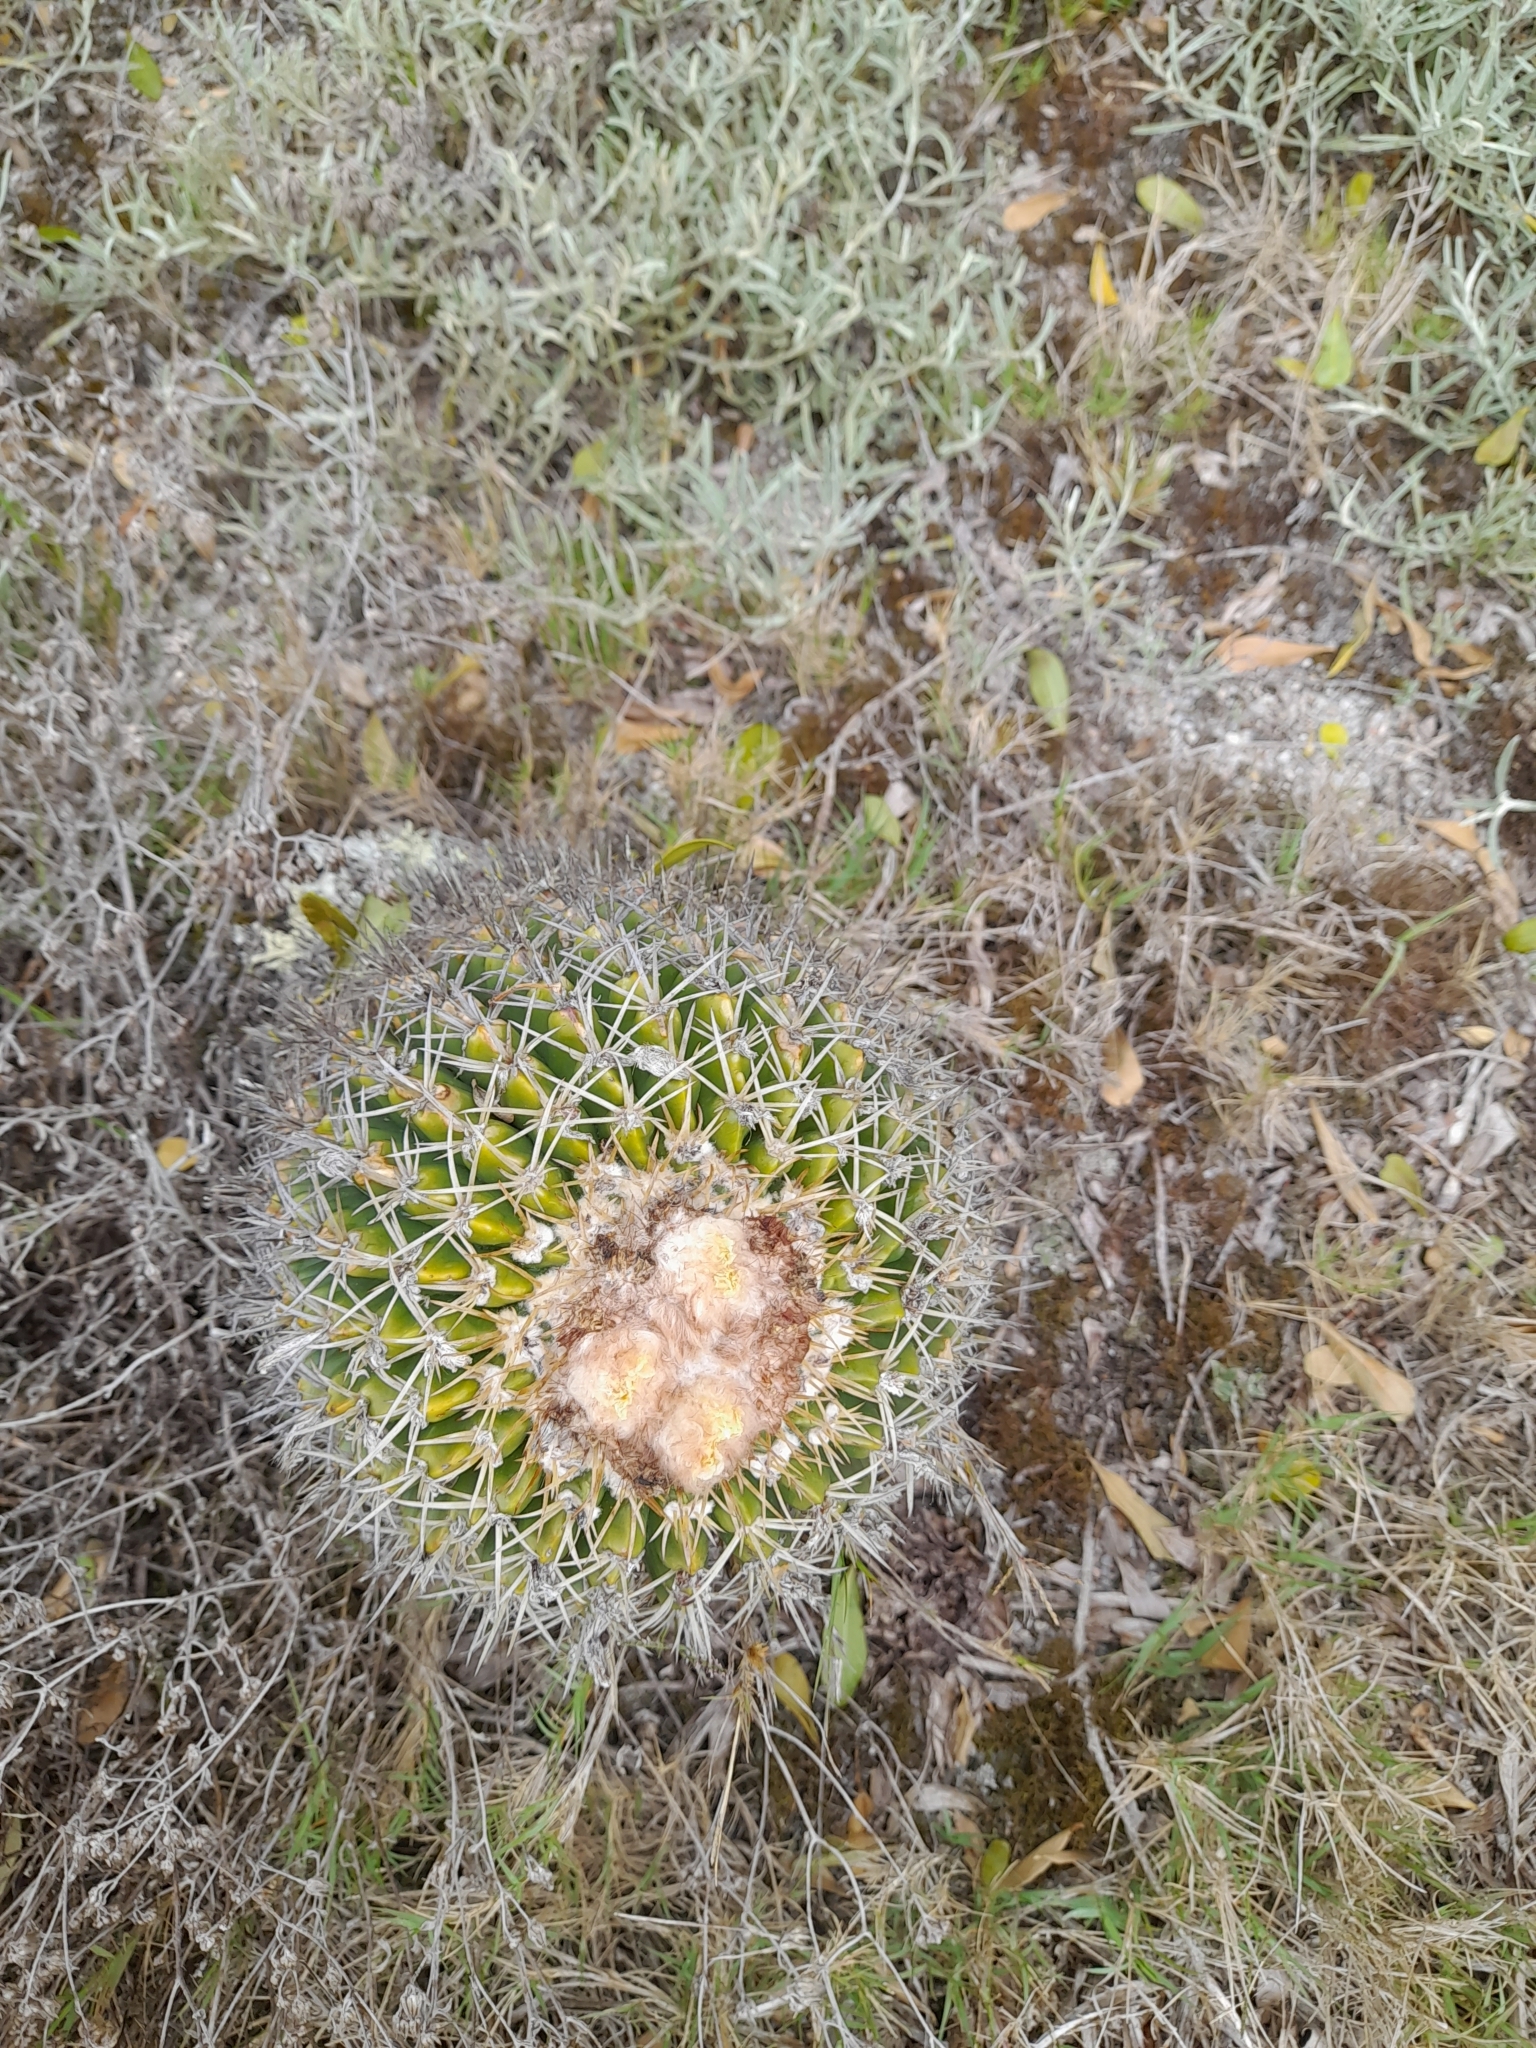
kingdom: Plantae
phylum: Tracheophyta
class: Magnoliopsida
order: Caryophyllales
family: Cactaceae
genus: Parodia
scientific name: Parodia erinacea
